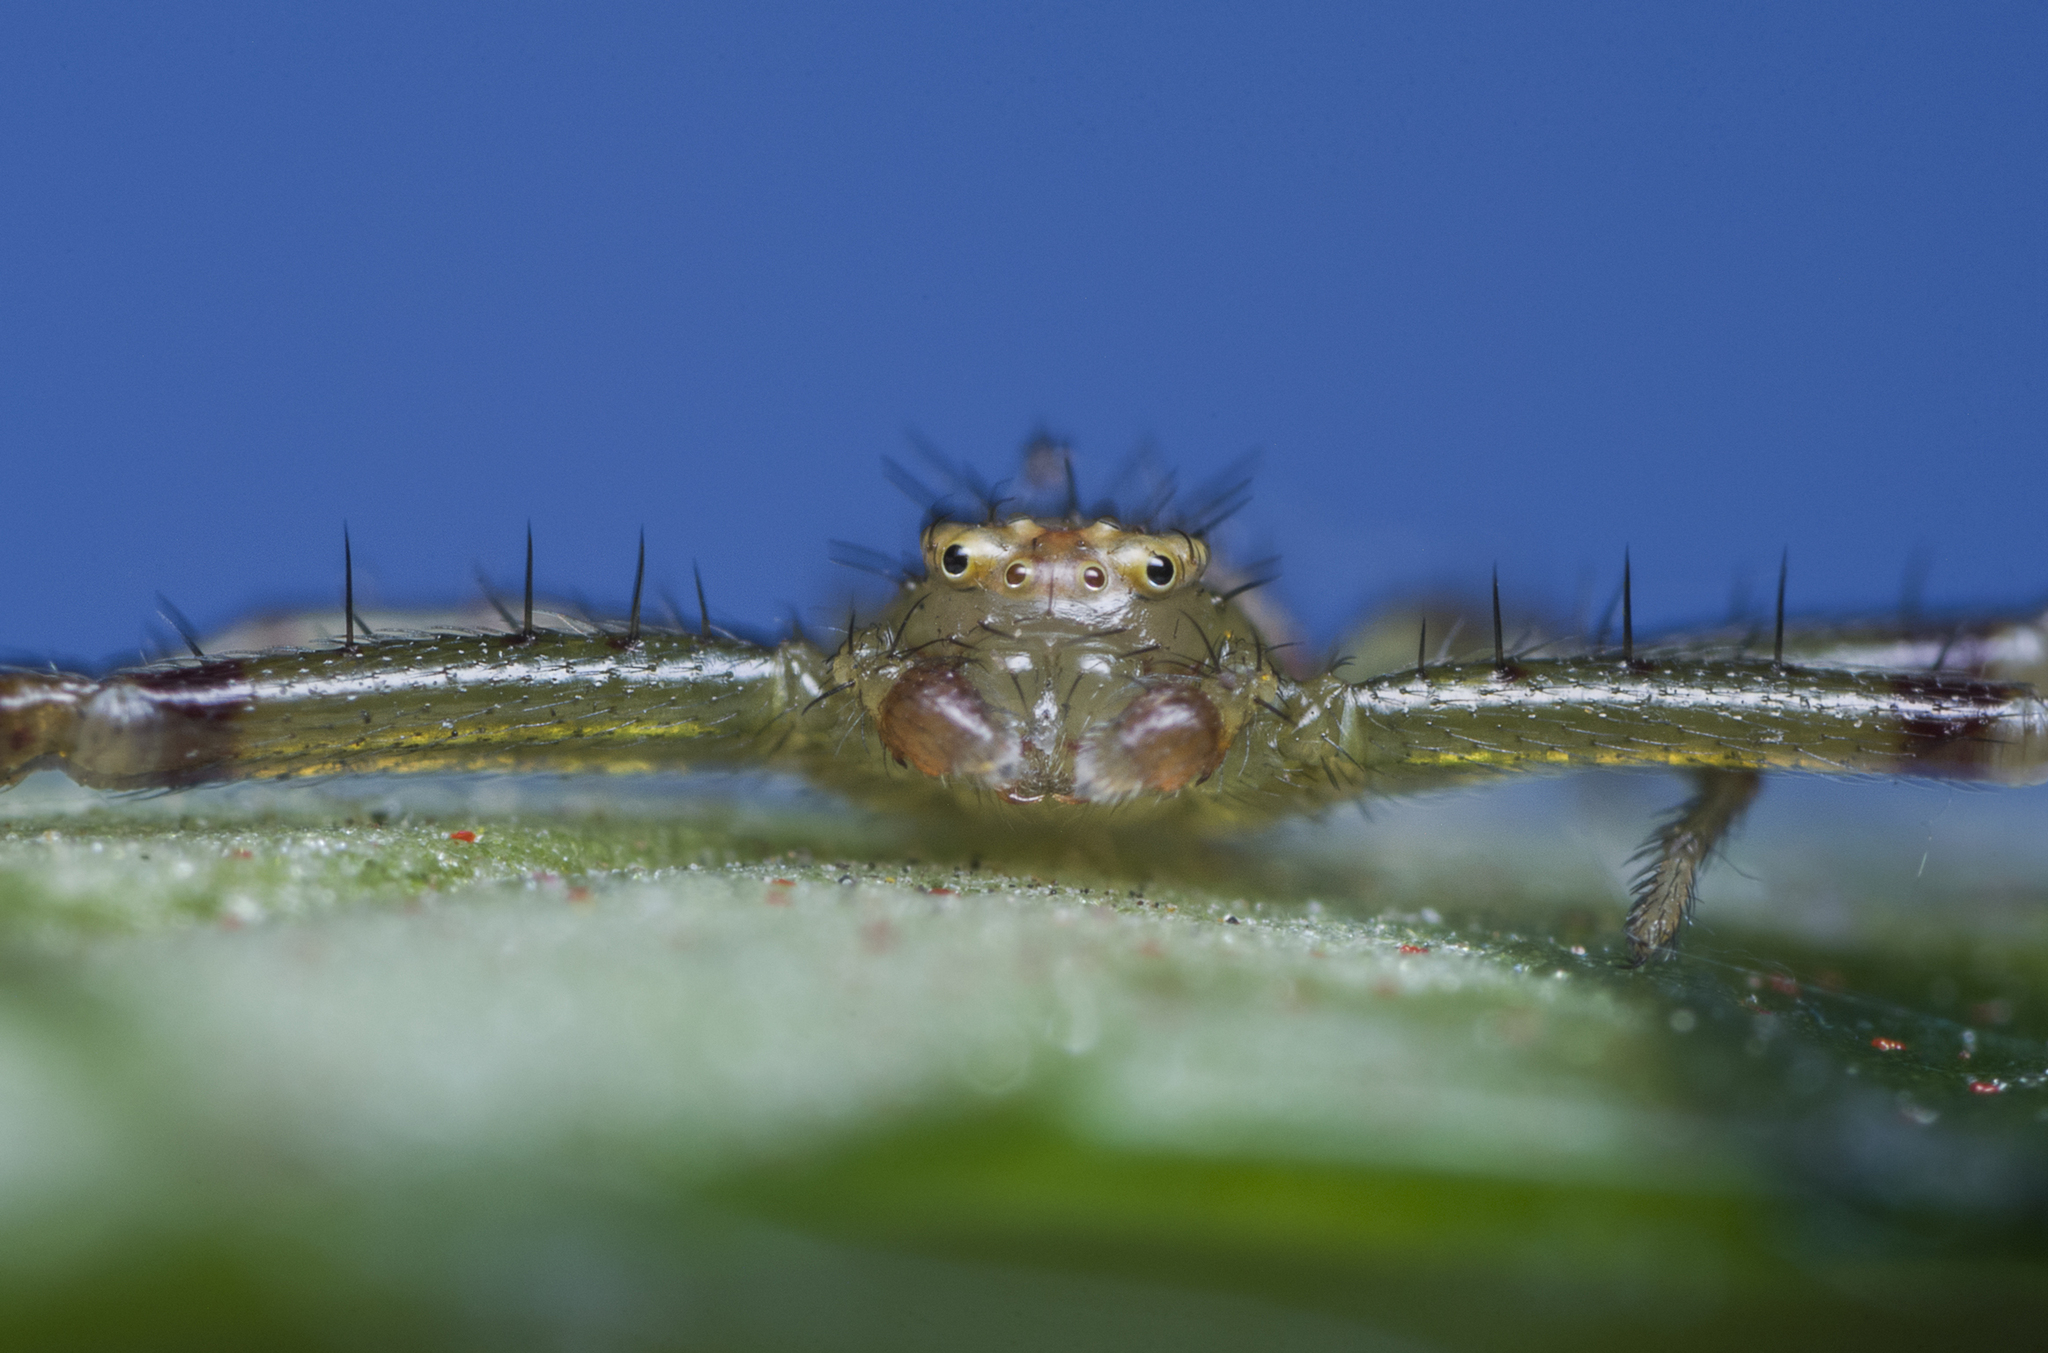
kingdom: Animalia
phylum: Arthropoda
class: Arachnida
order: Araneae
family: Thomisidae
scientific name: Thomisidae
